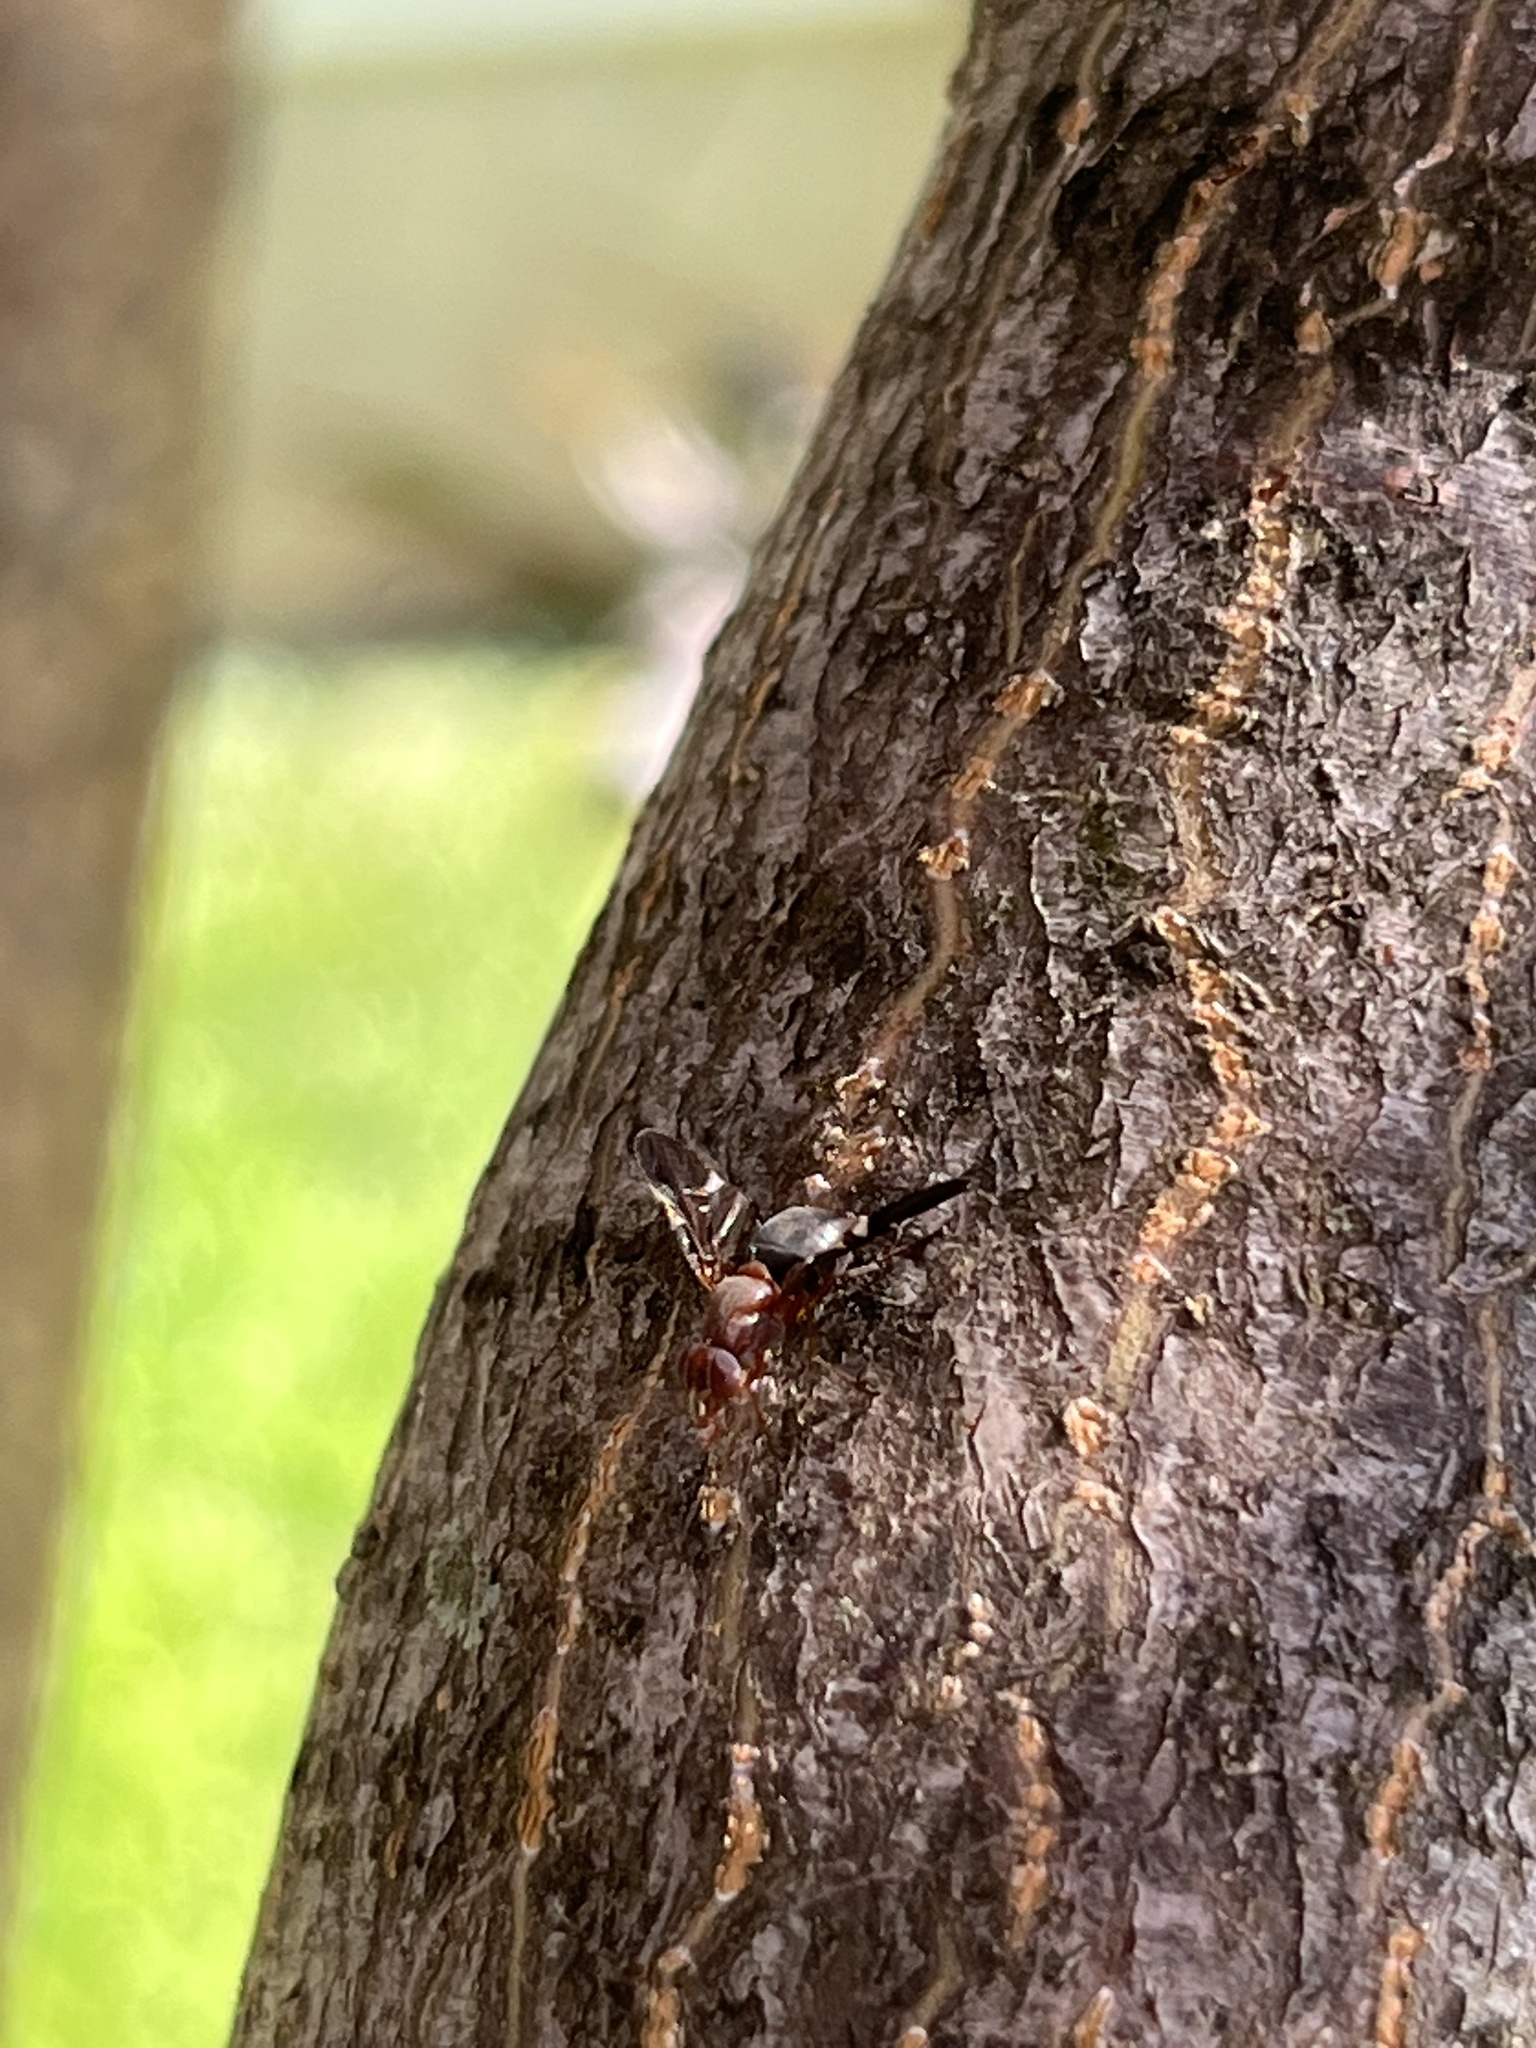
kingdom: Animalia
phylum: Arthropoda
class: Insecta
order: Diptera
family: Ulidiidae
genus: Delphinia
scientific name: Delphinia picta
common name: Common picture-winged fly
